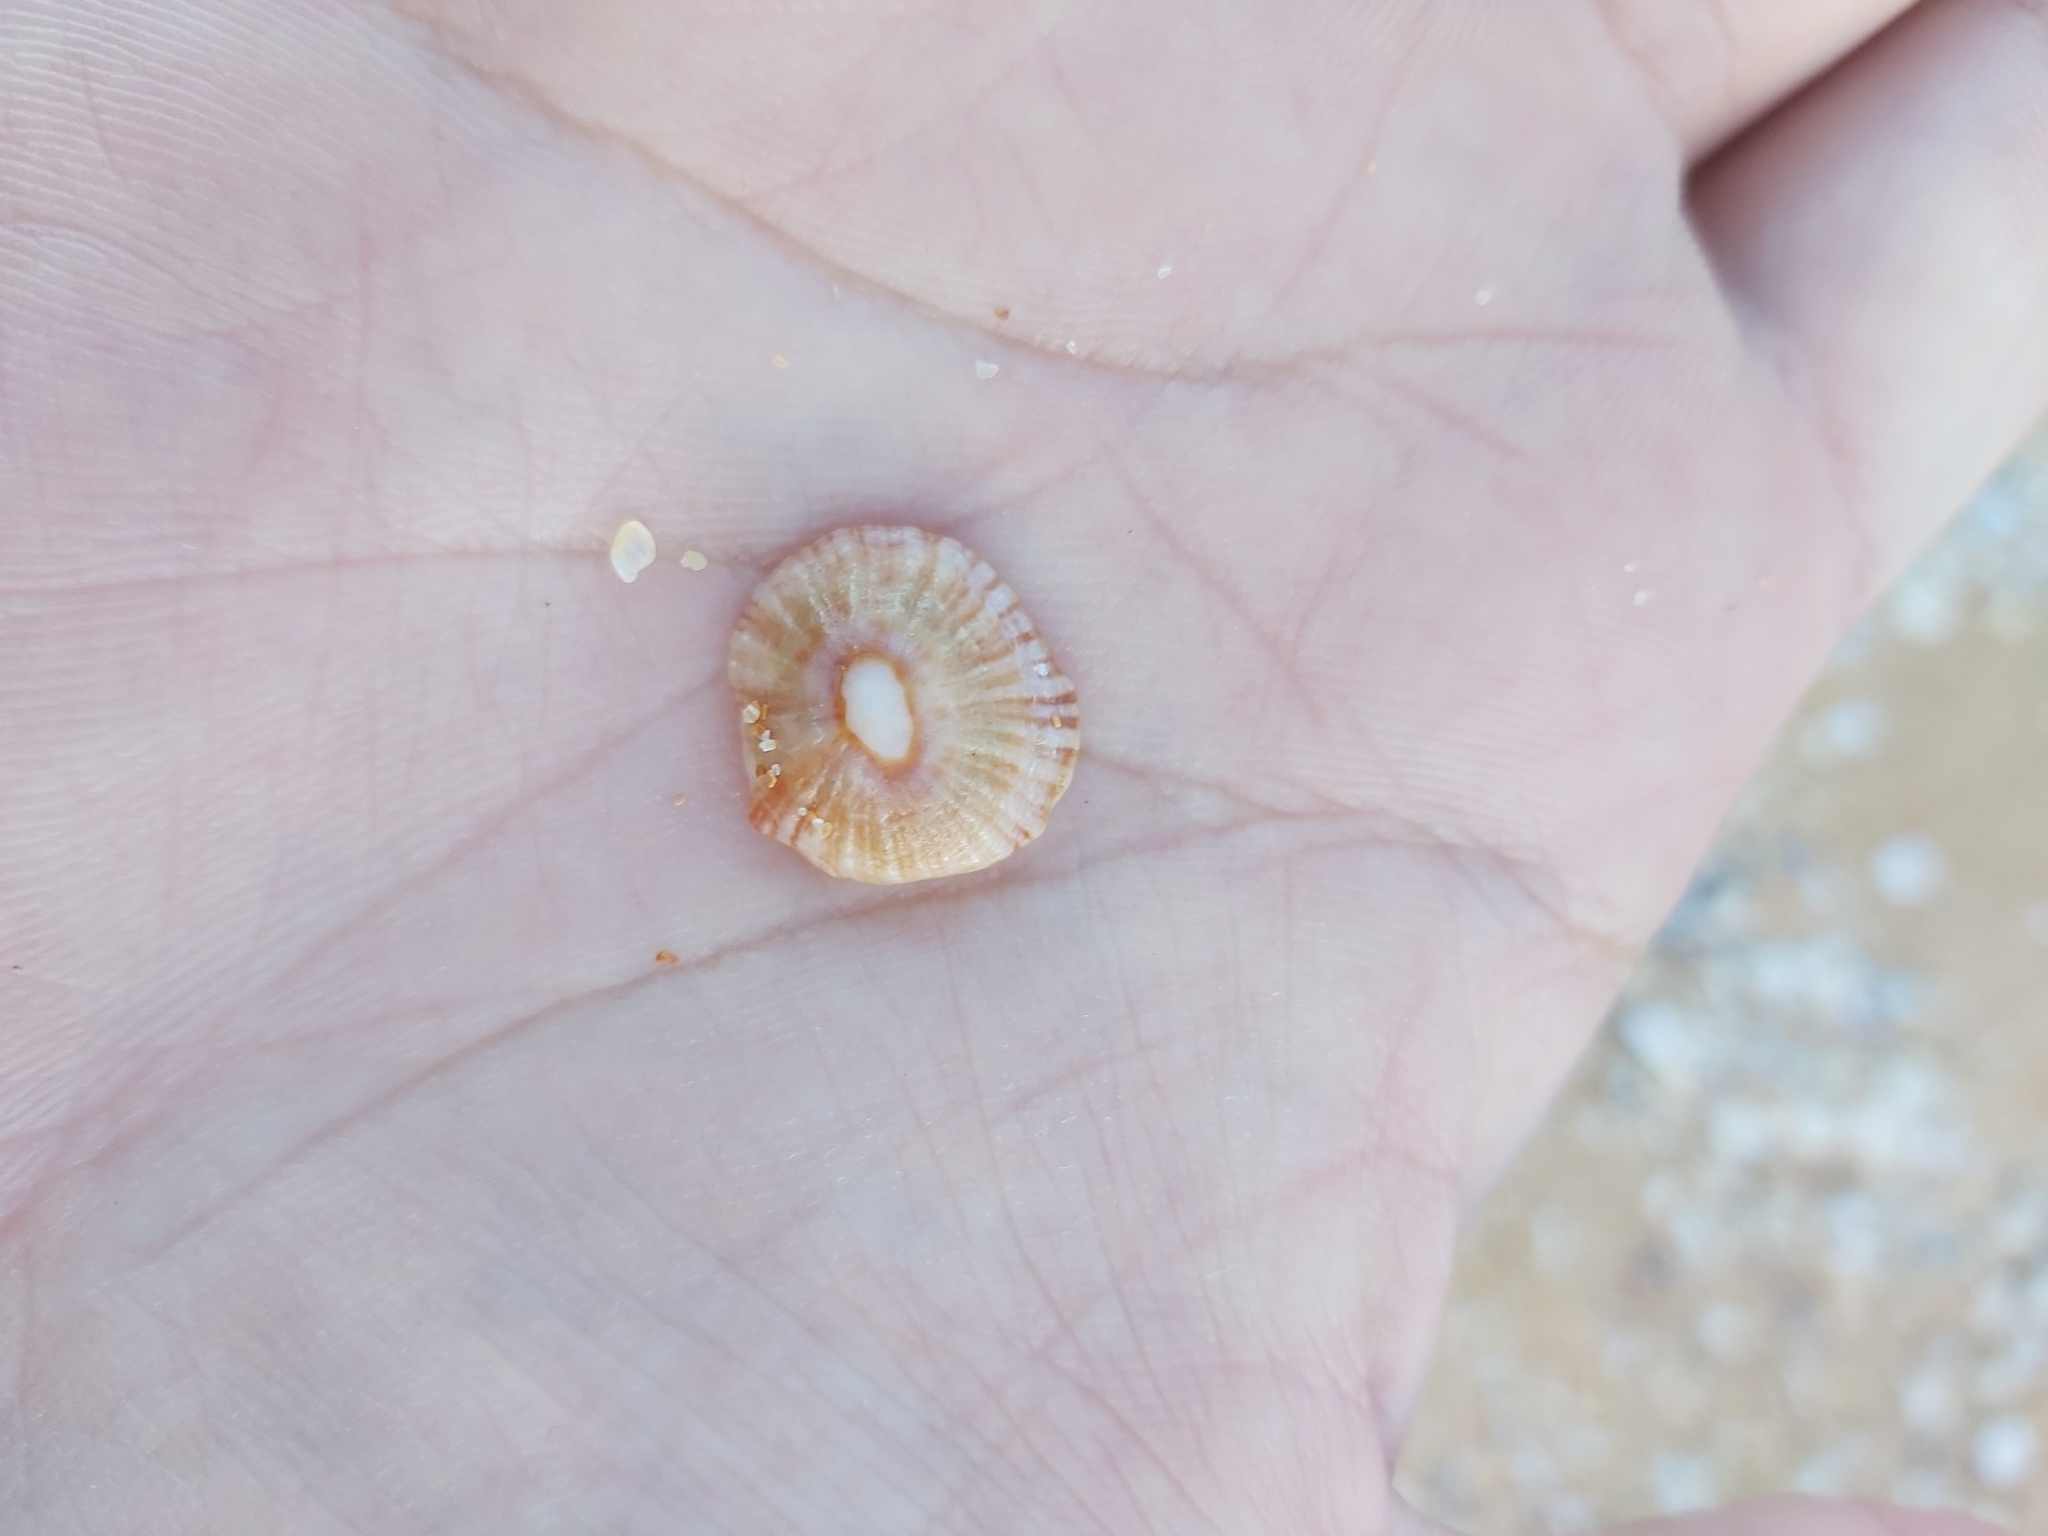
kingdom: Animalia
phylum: Mollusca
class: Gastropoda
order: Siphonariida
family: Siphonariidae
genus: Siphonaria
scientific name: Siphonaria funiculata
